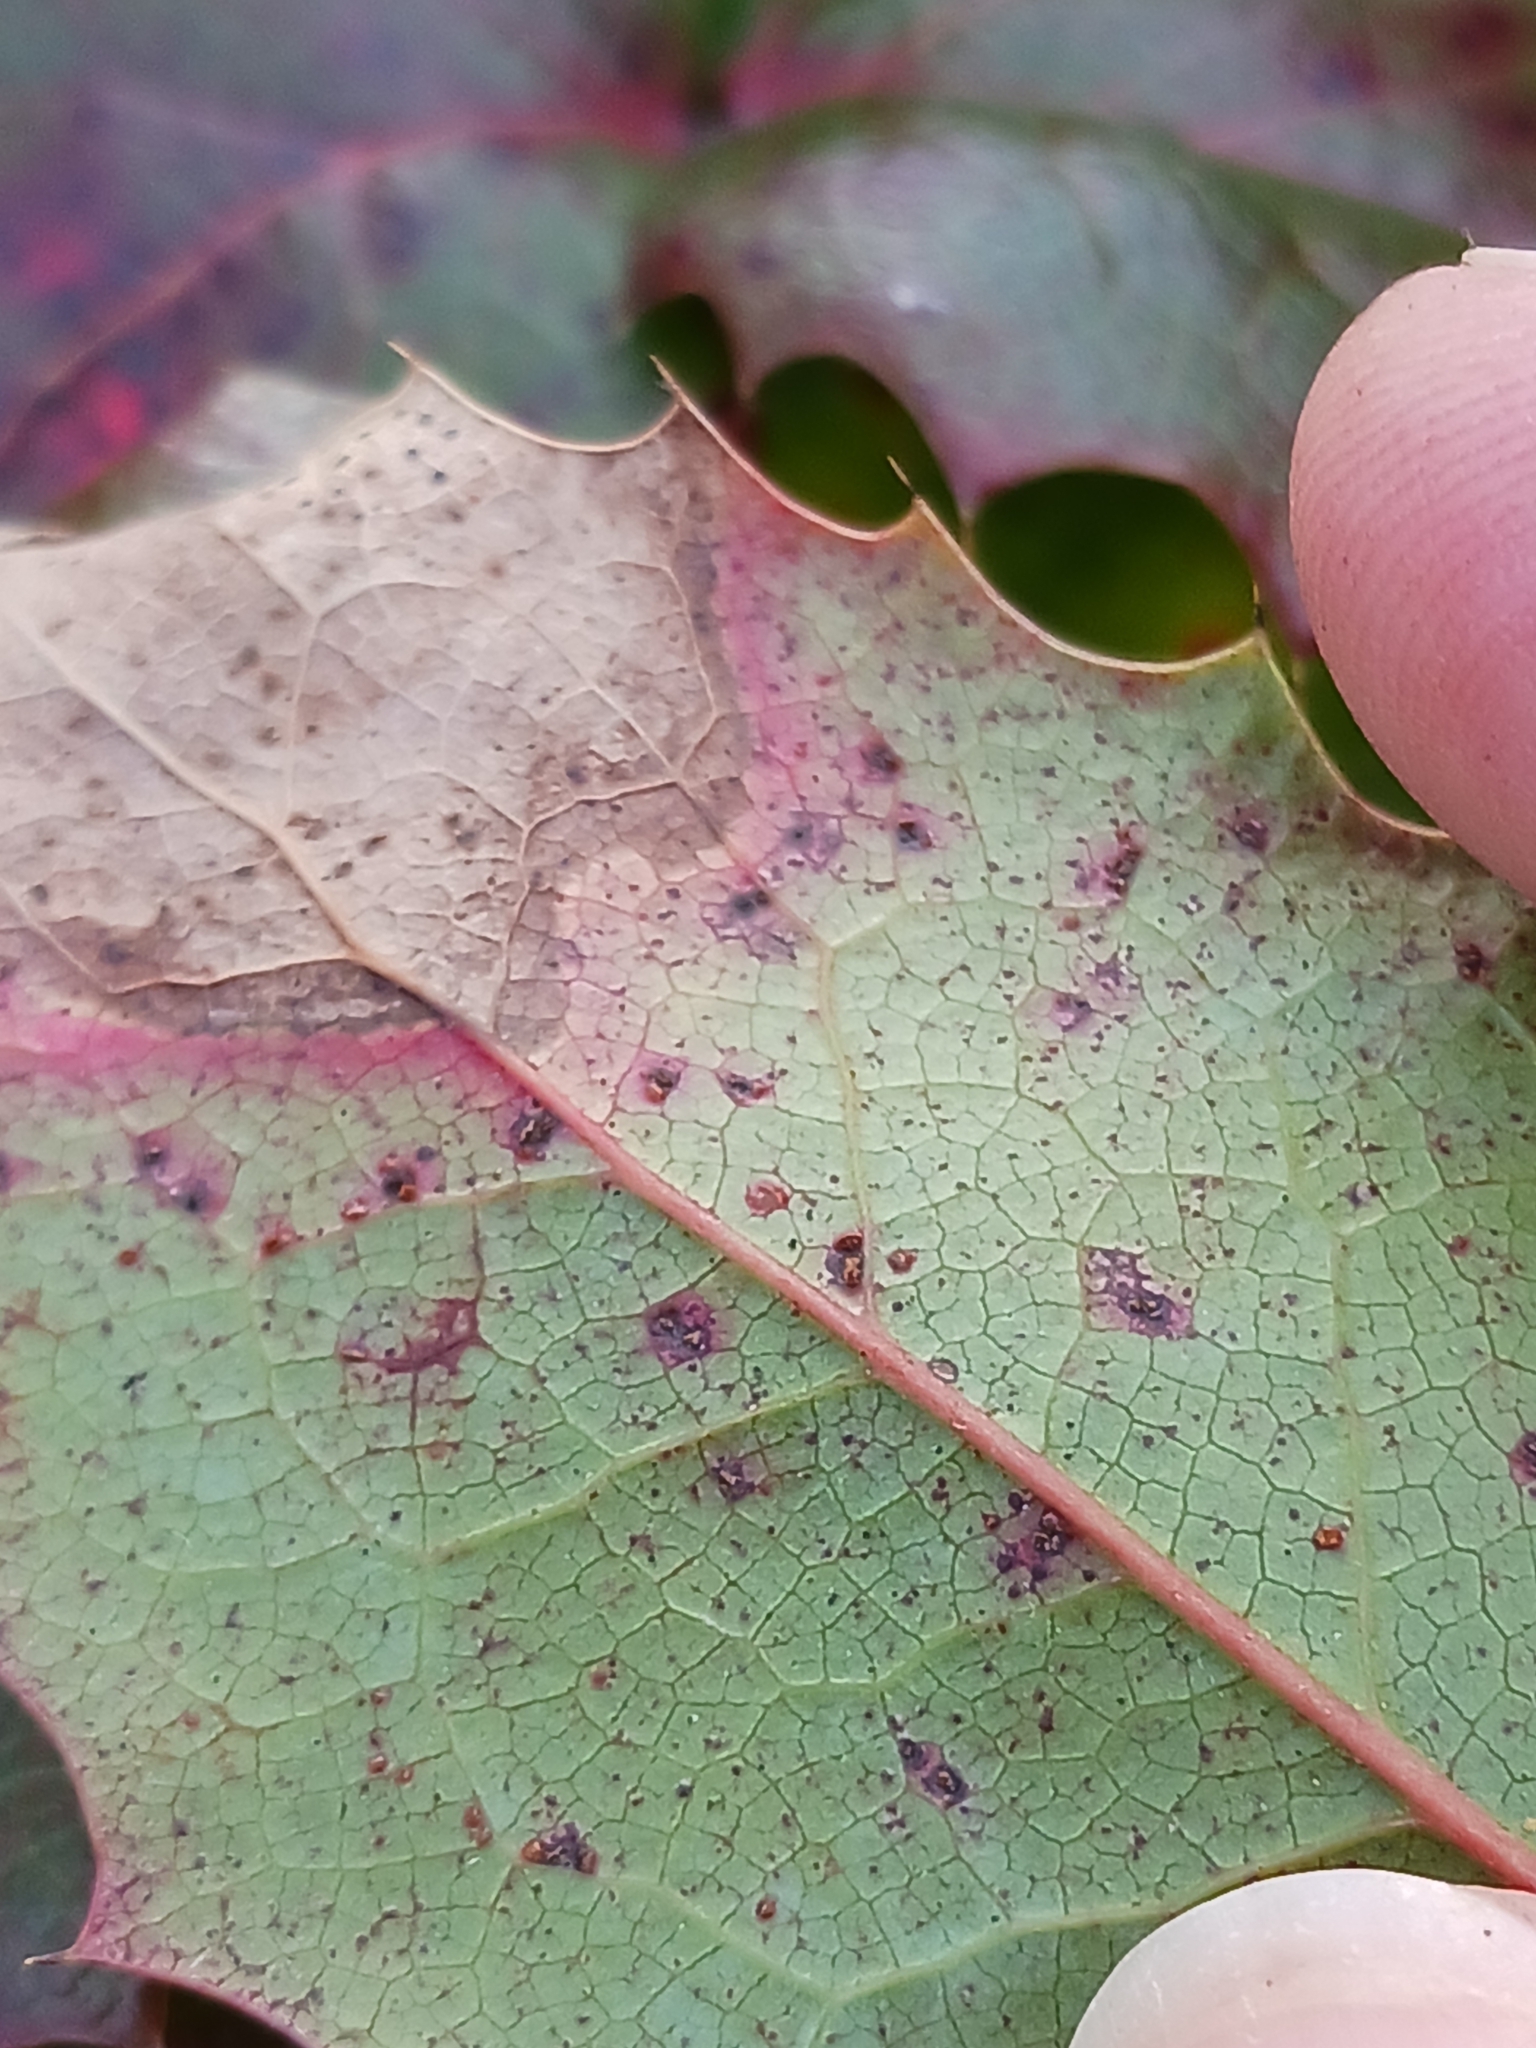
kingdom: Fungi
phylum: Basidiomycota
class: Pucciniomycetes
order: Pucciniales
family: Pucciniaceae
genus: Cumminsiella
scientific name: Cumminsiella mirabilissima
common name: Mahonia rust
